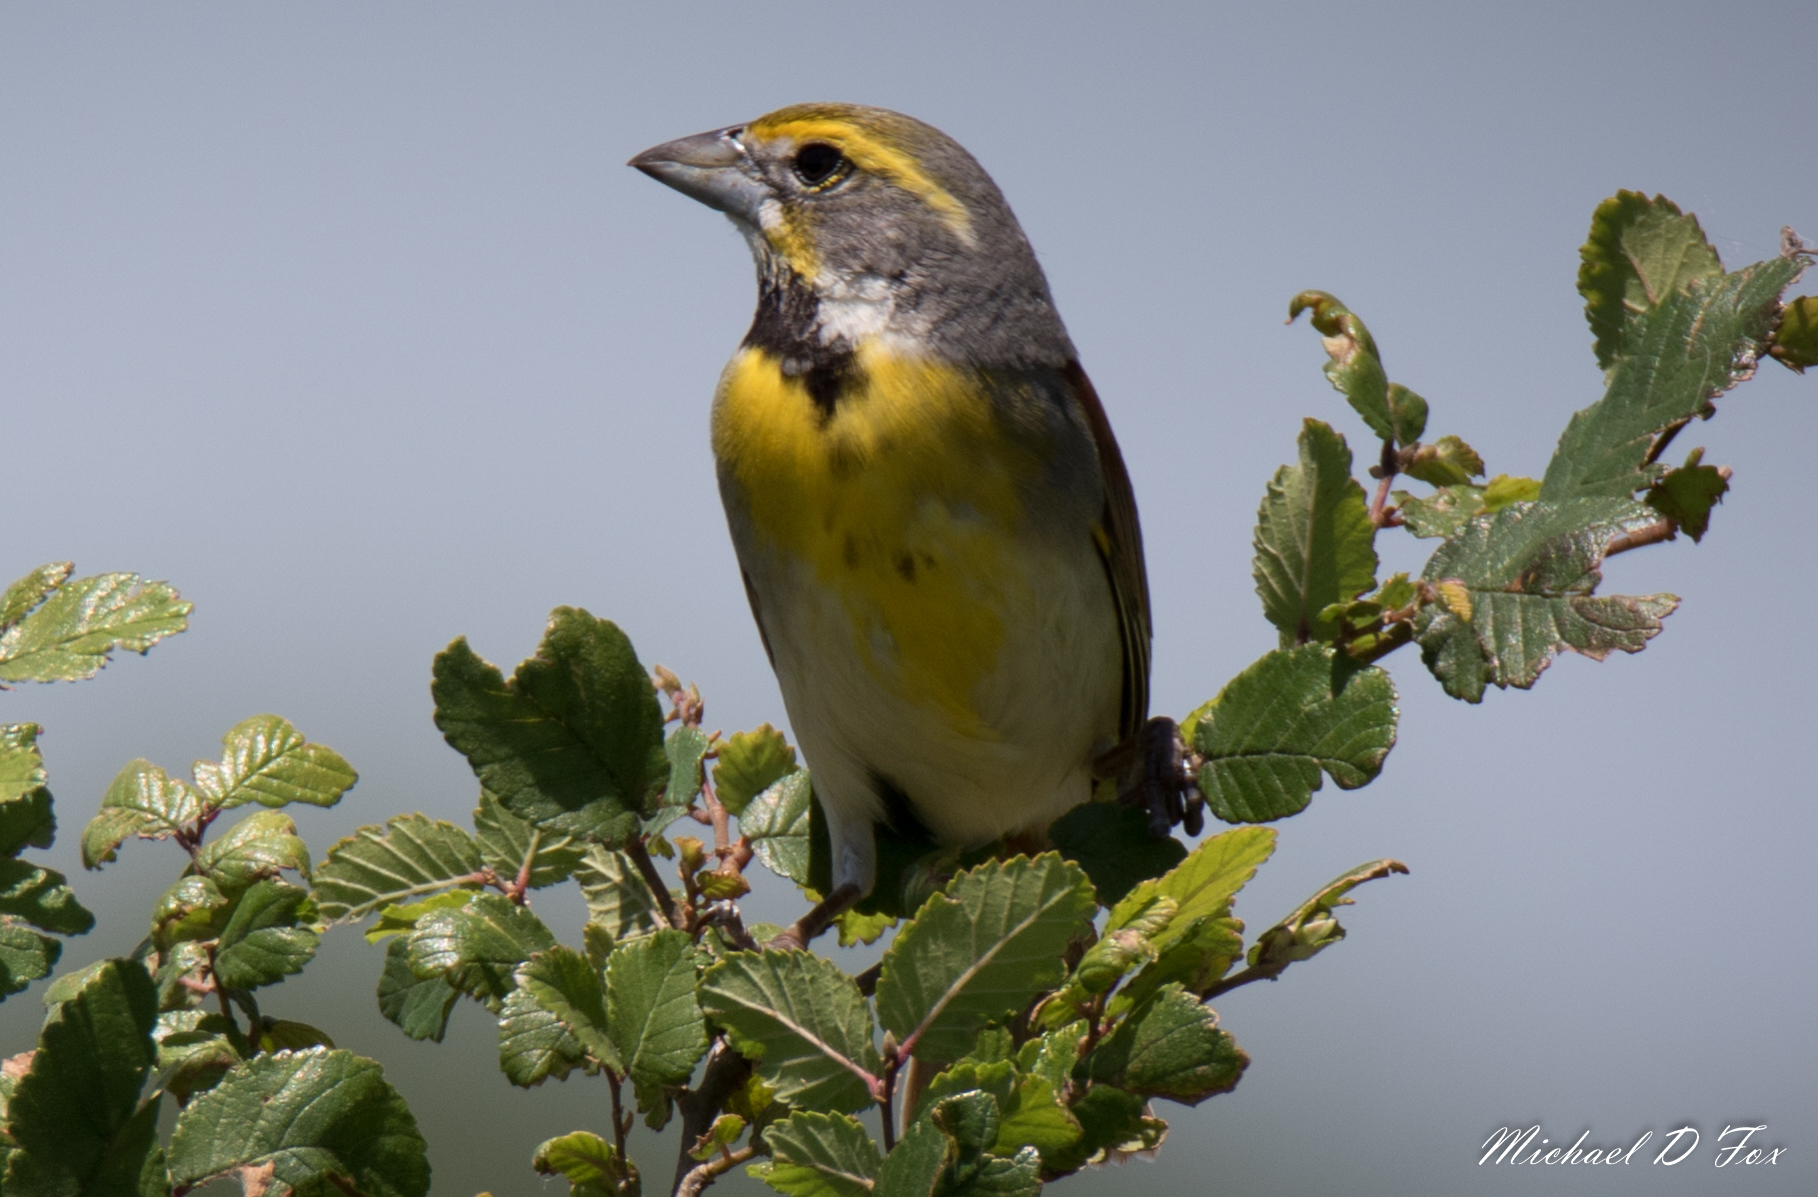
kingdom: Animalia
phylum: Chordata
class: Aves
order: Passeriformes
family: Cardinalidae
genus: Spiza
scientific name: Spiza americana
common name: Dickcissel
